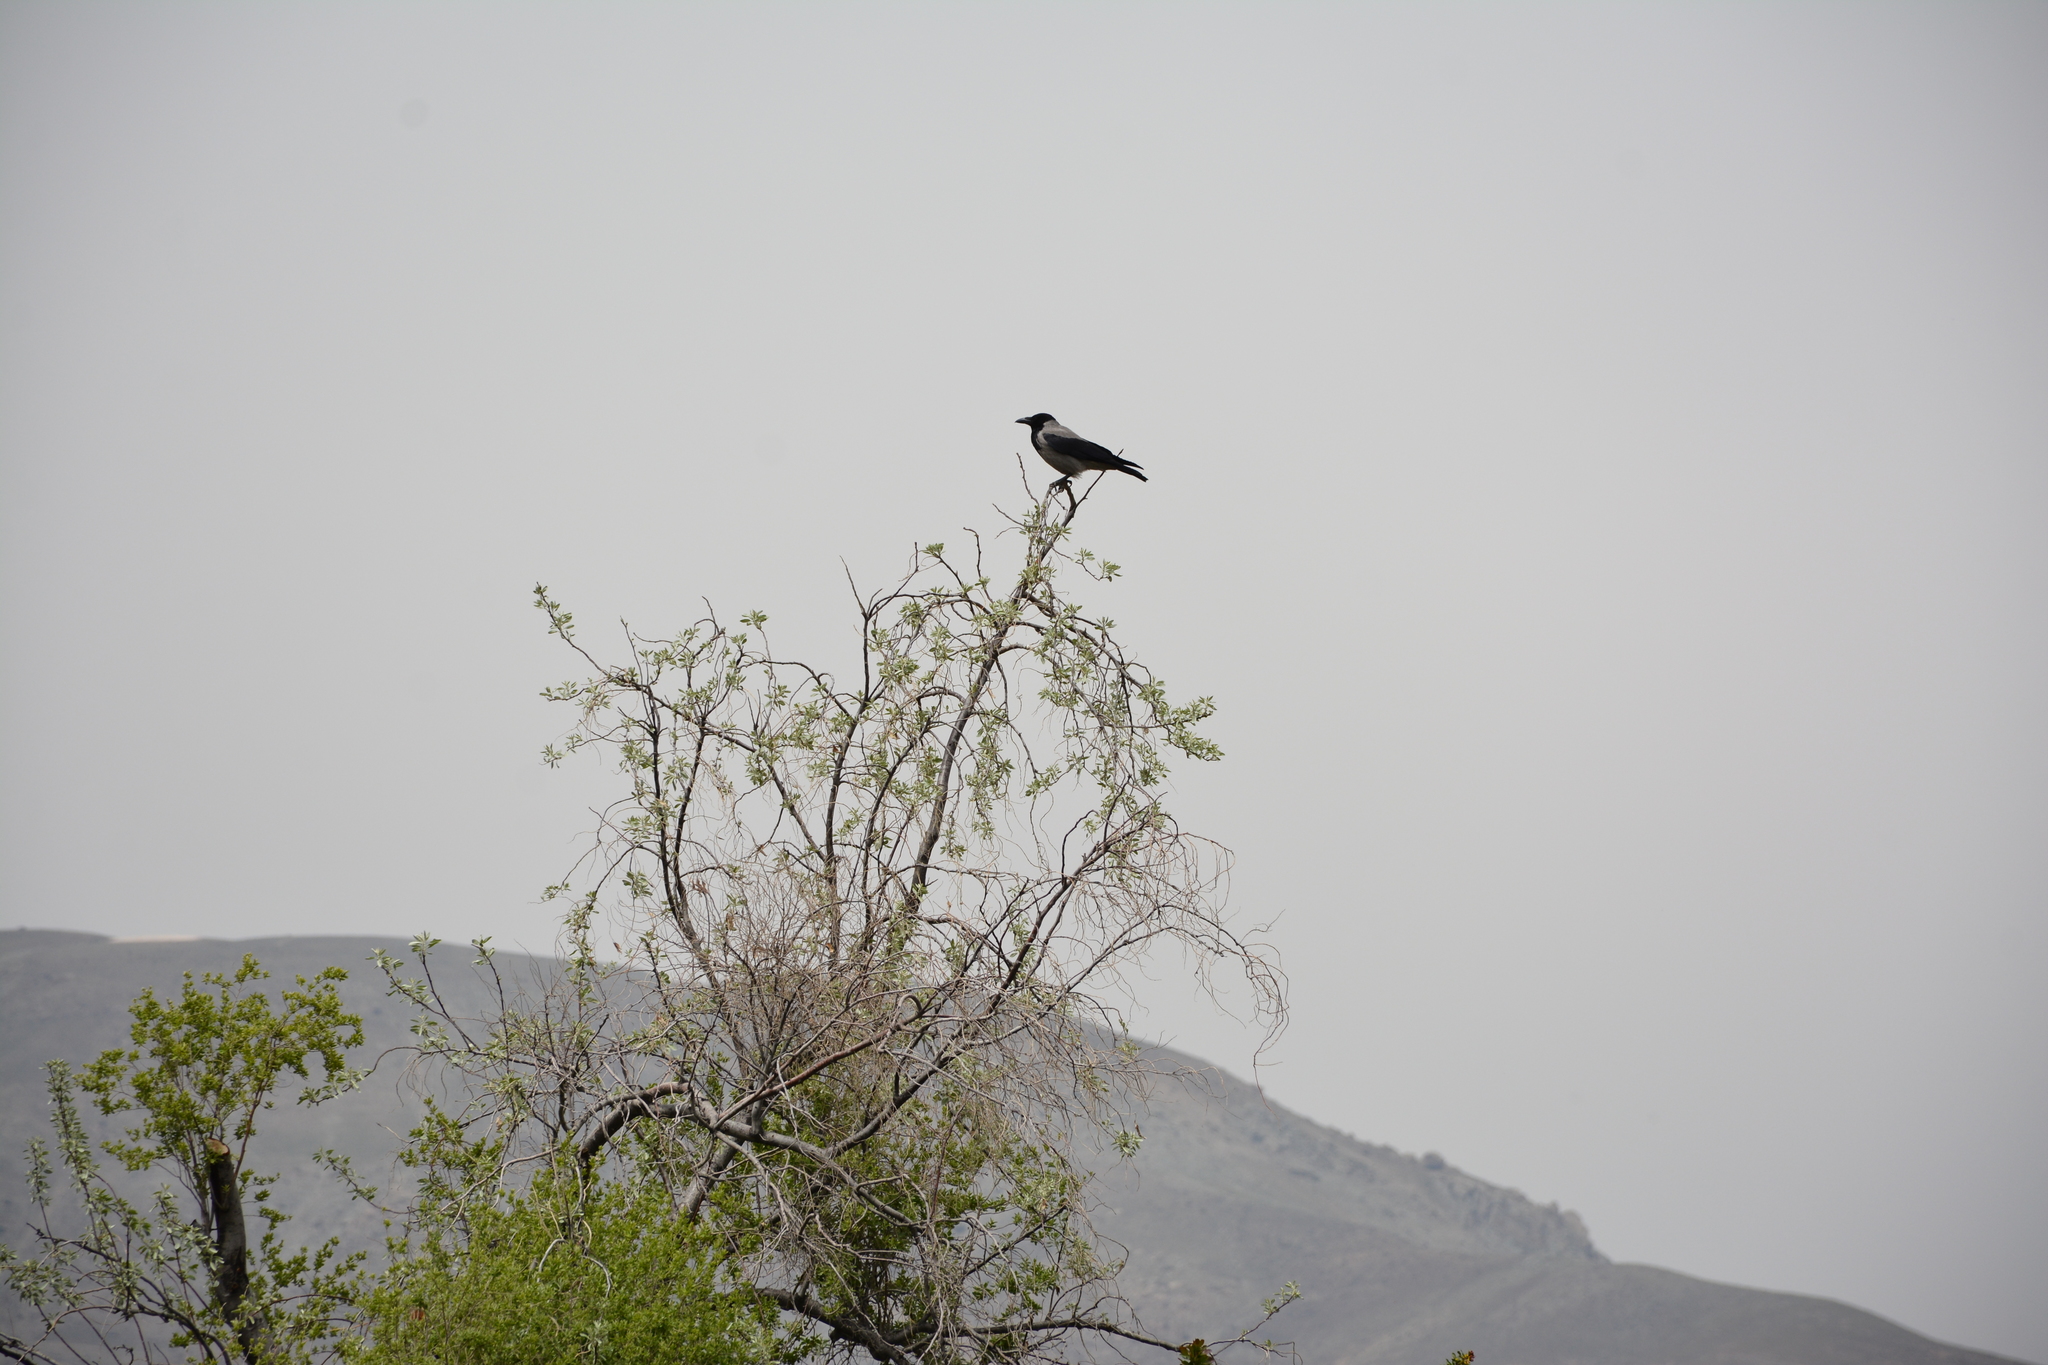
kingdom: Animalia
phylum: Chordata
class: Aves
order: Passeriformes
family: Corvidae
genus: Corvus
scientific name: Corvus cornix
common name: Hooded crow
